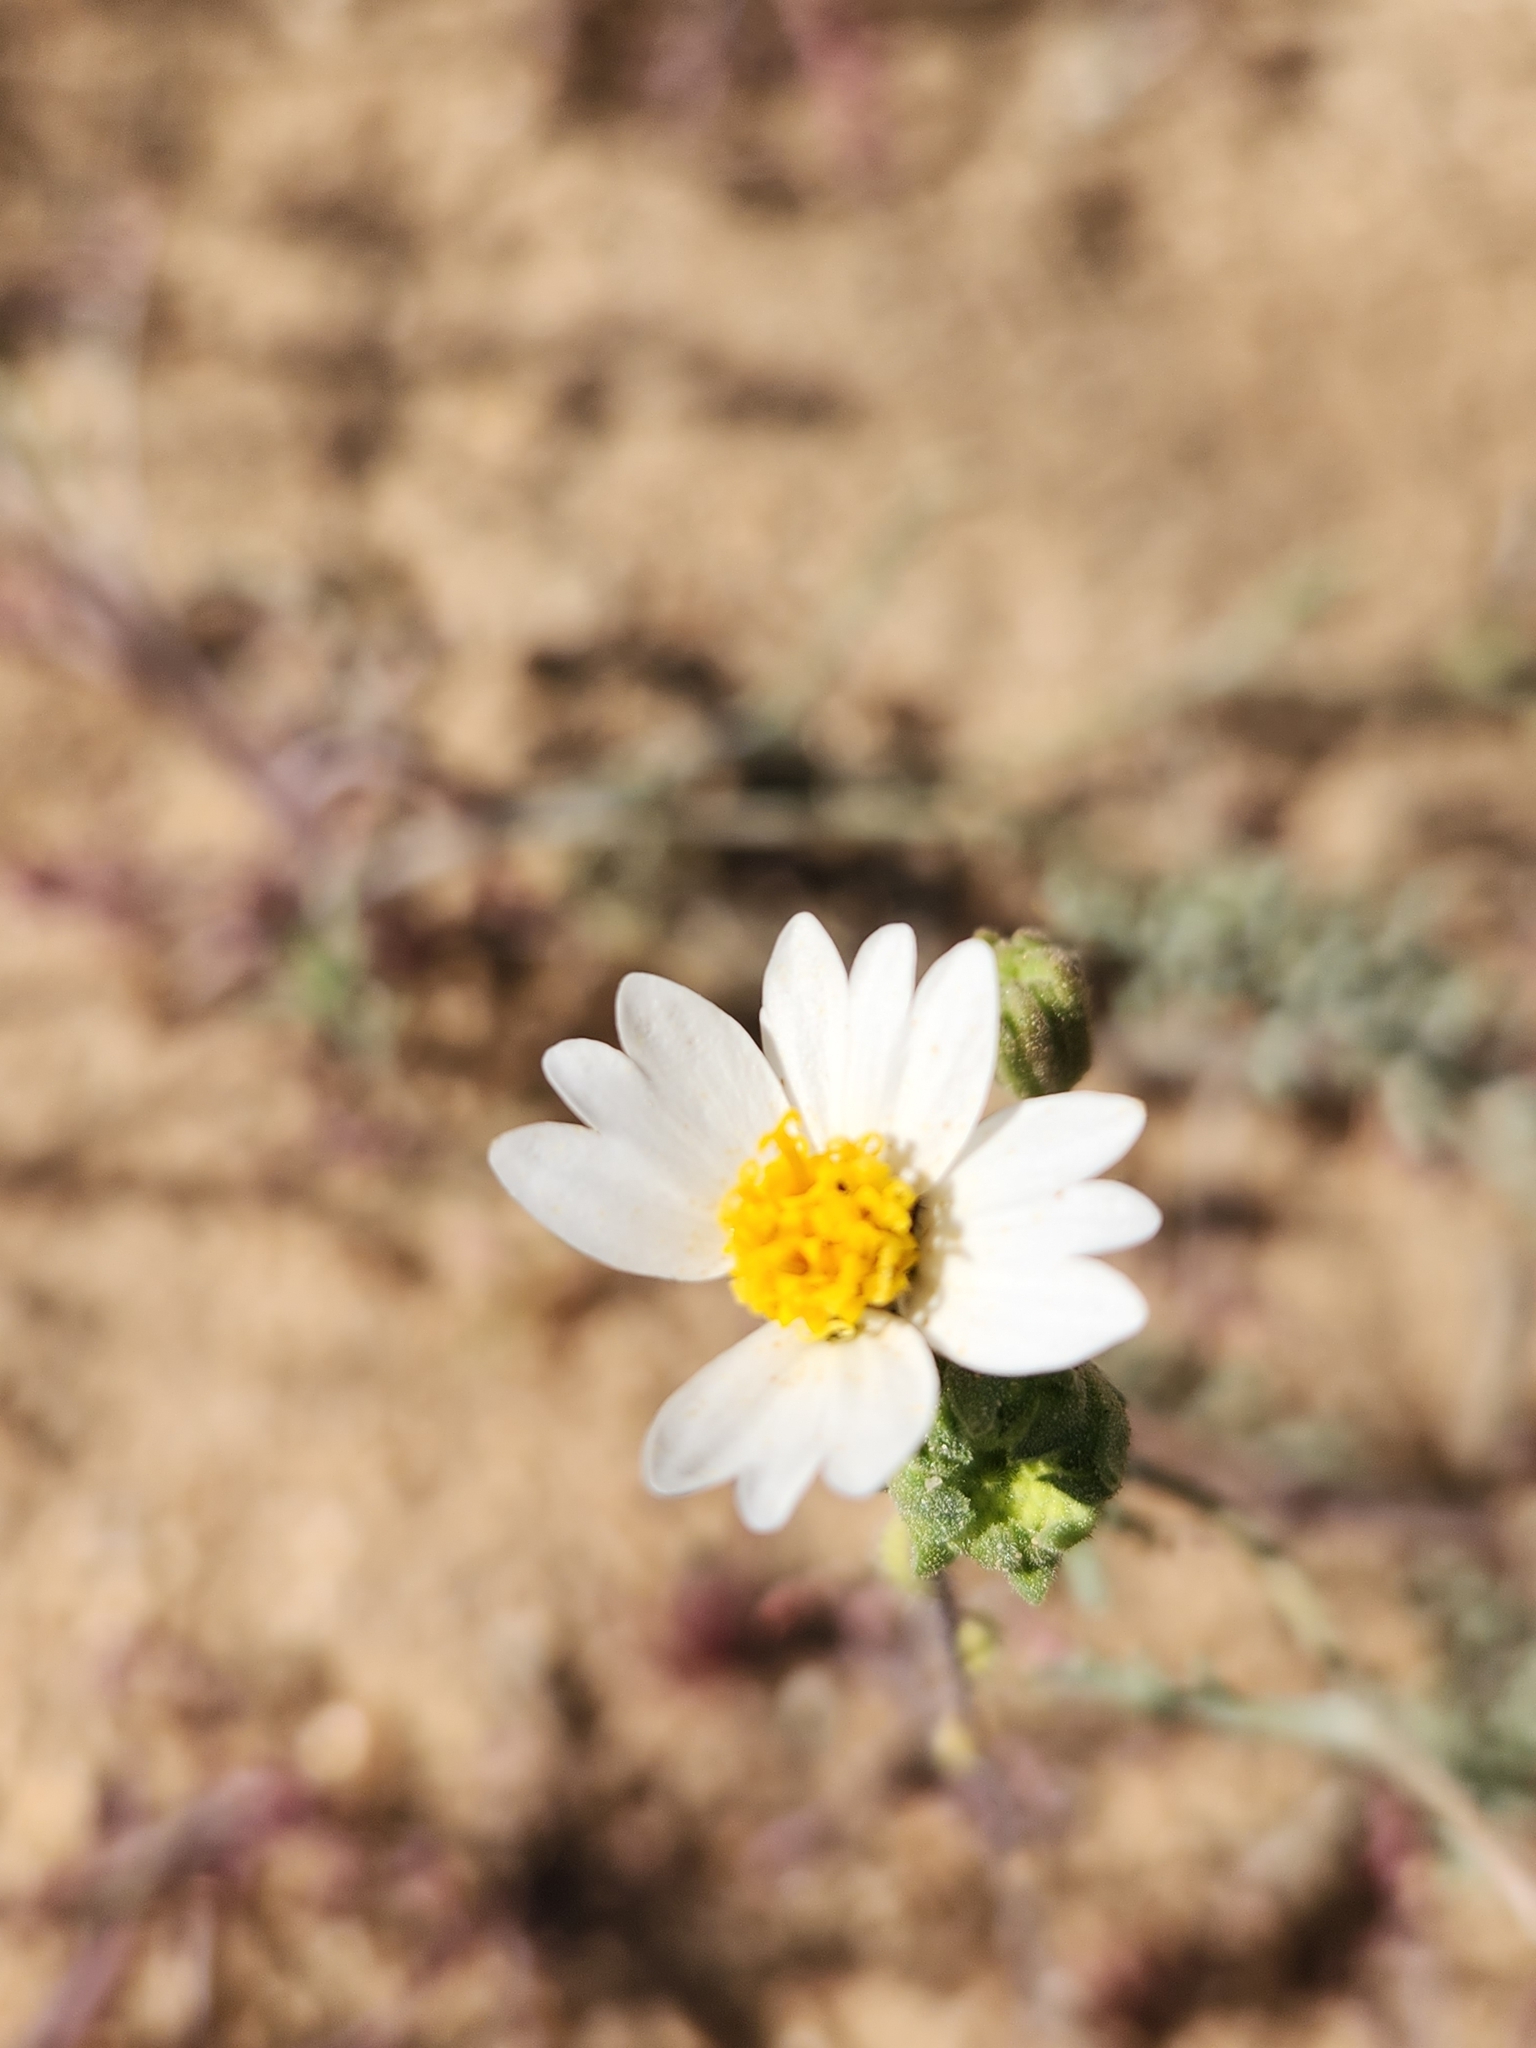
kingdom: Plantae
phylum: Tracheophyta
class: Magnoliopsida
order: Asterales
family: Asteraceae
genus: Layia
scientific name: Layia glandulosa
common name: White layia
